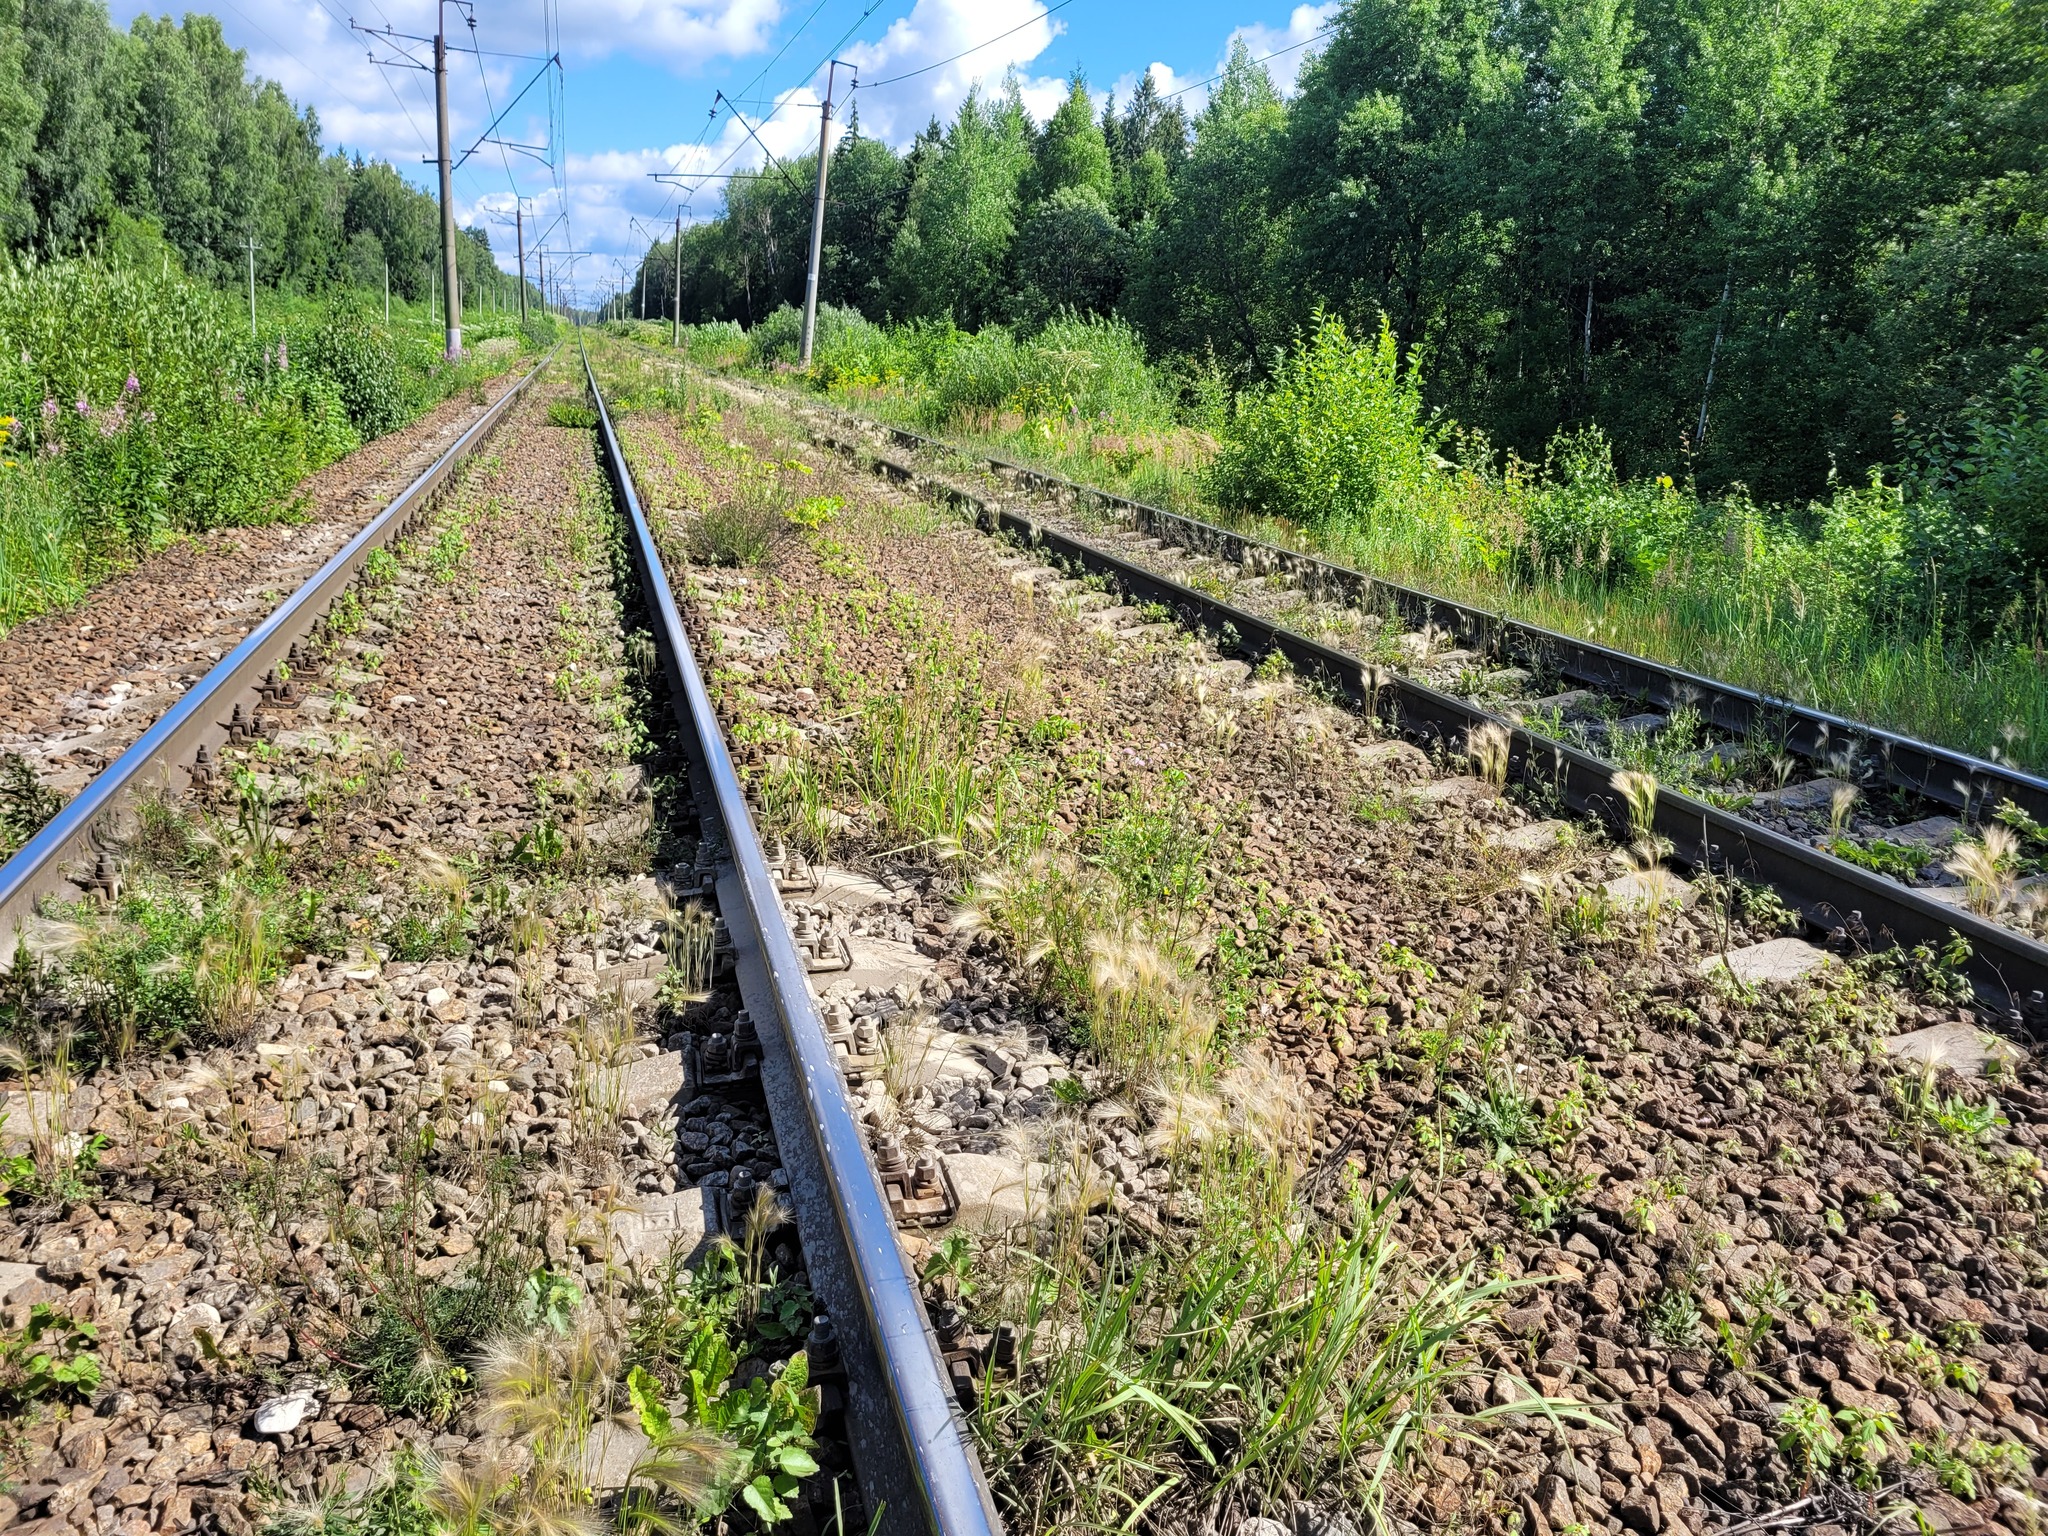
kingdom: Plantae
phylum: Tracheophyta
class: Liliopsida
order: Poales
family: Poaceae
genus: Hordeum
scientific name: Hordeum jubatum
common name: Foxtail barley
